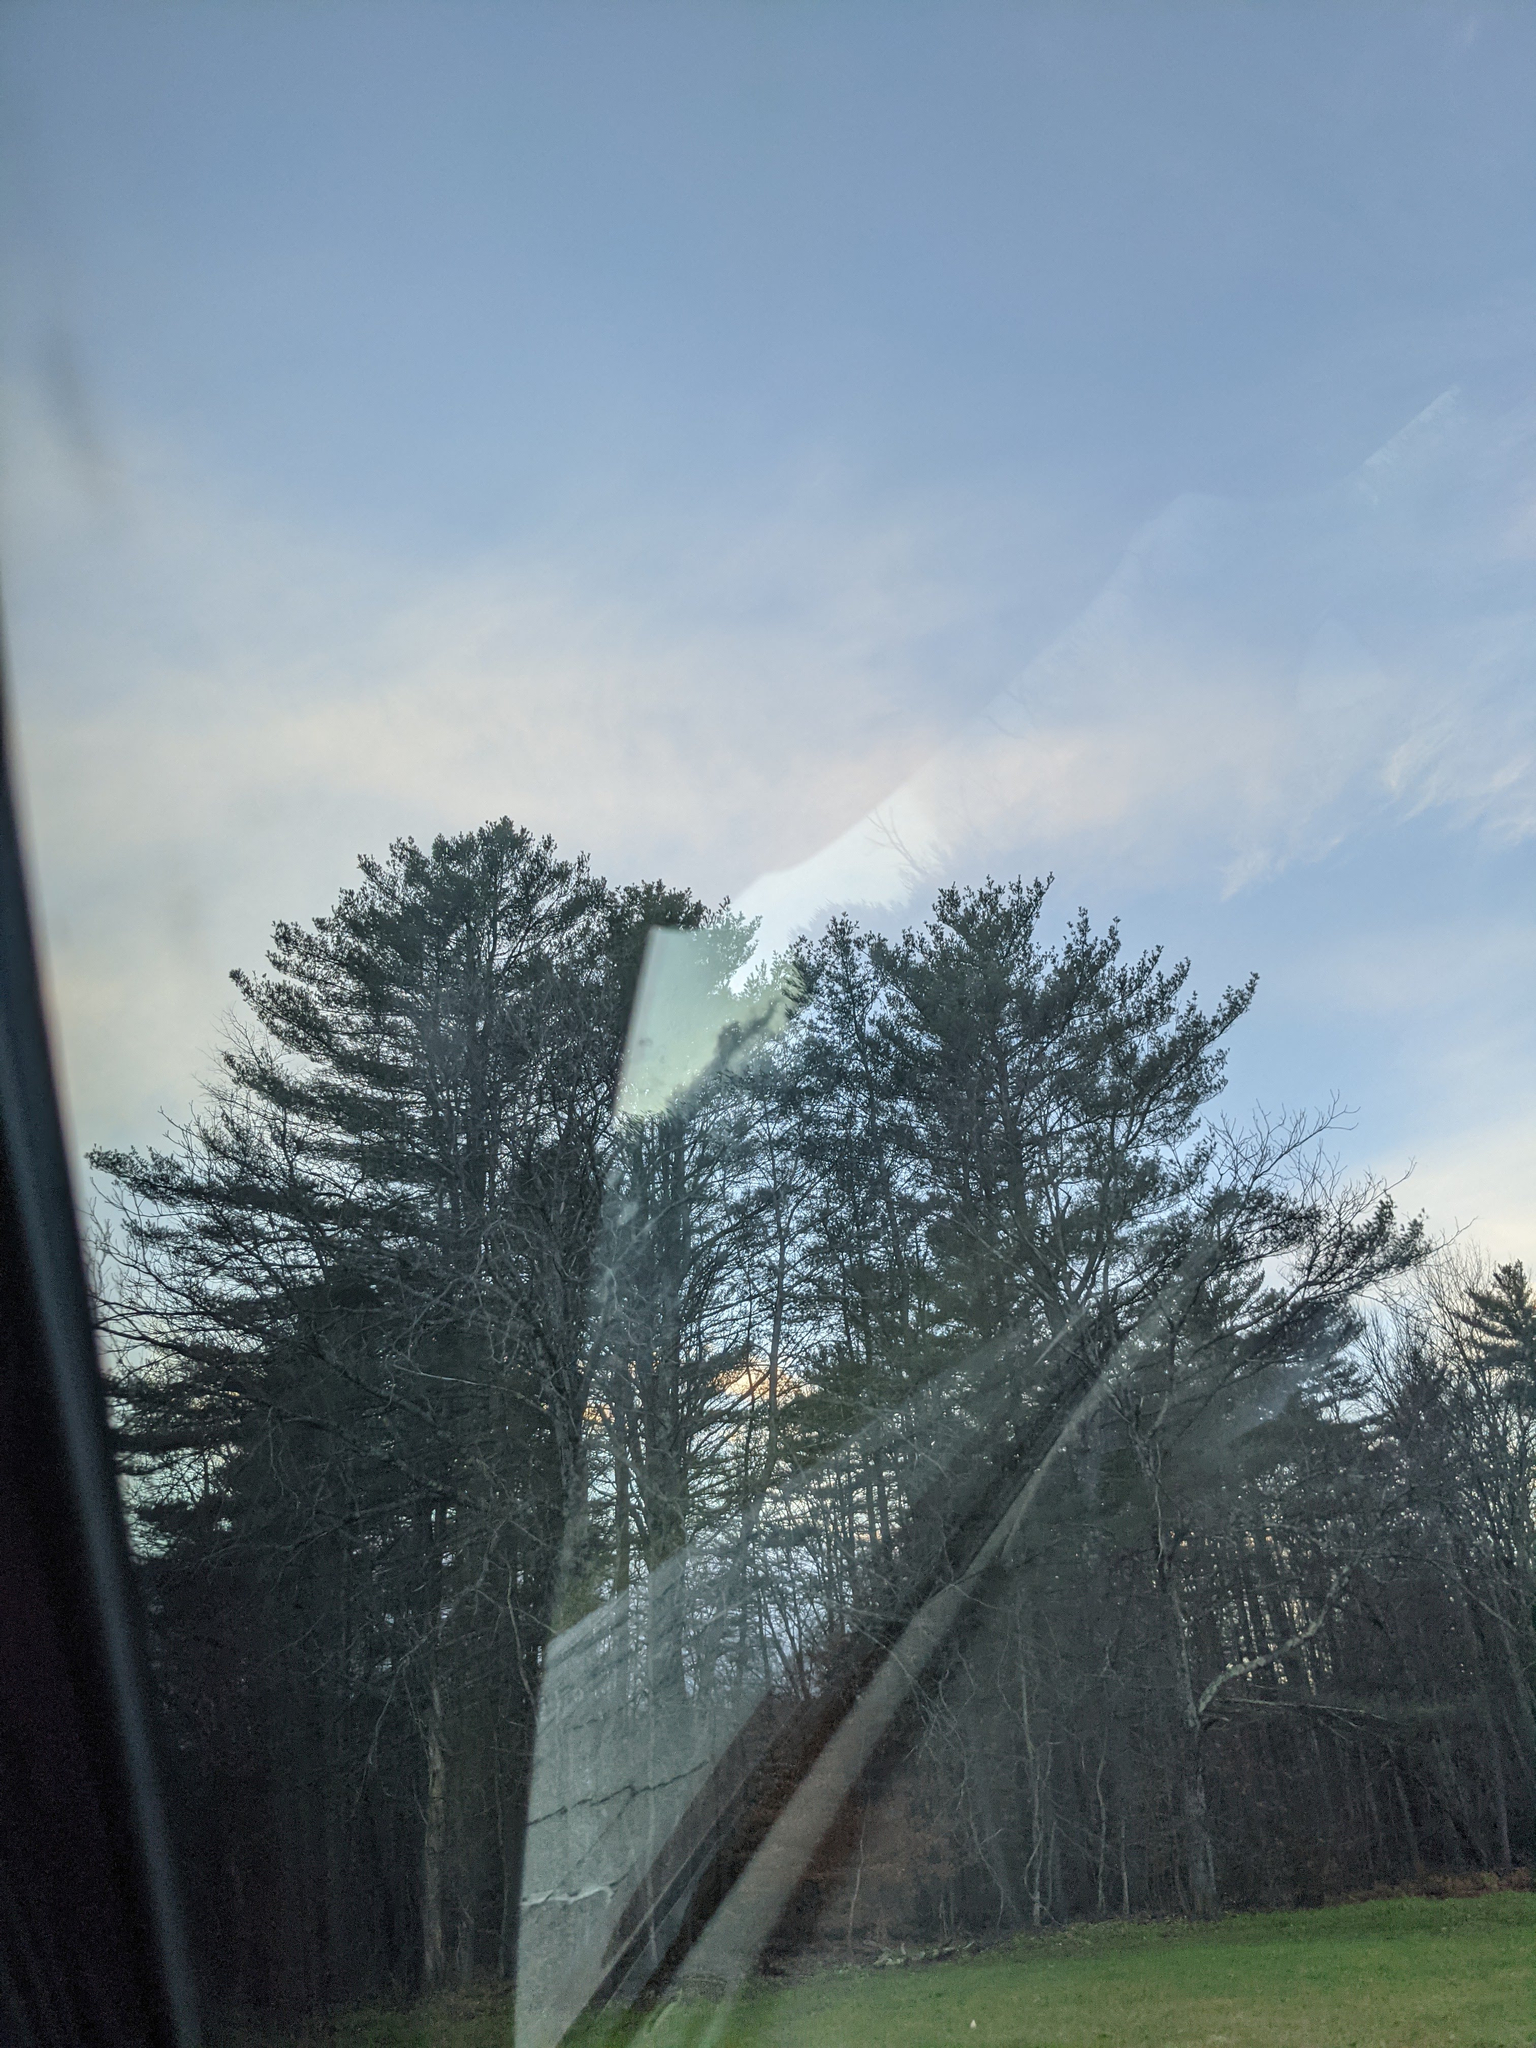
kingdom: Plantae
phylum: Tracheophyta
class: Pinopsida
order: Pinales
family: Pinaceae
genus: Pinus
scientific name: Pinus strobus
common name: Weymouth pine
